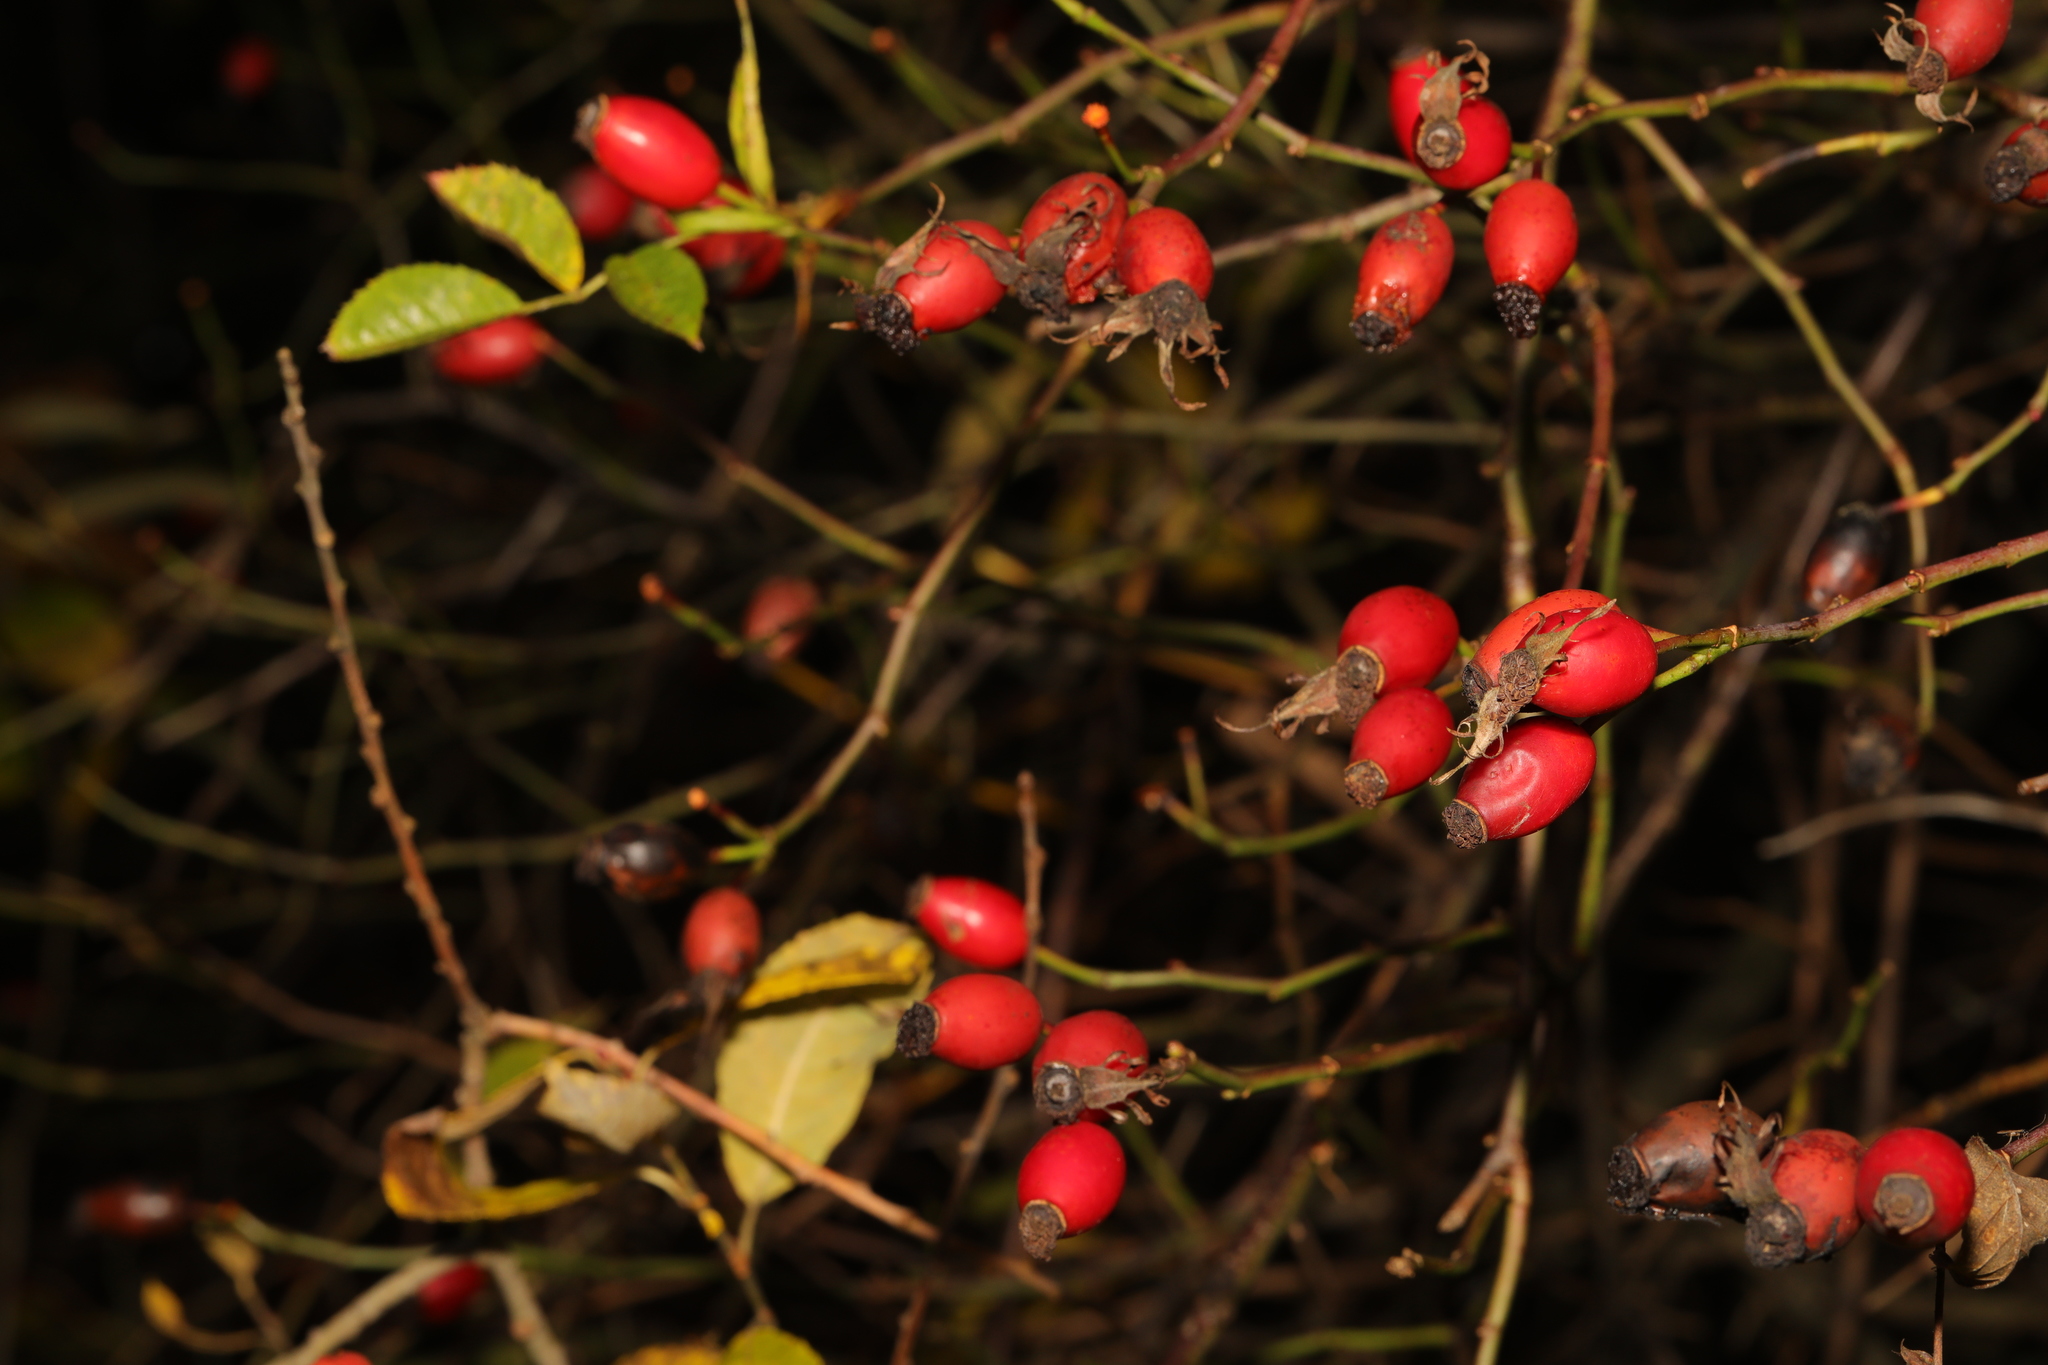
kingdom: Plantae
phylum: Tracheophyta
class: Magnoliopsida
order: Rosales
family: Rosaceae
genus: Rosa
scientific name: Rosa canina
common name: Dog rose
